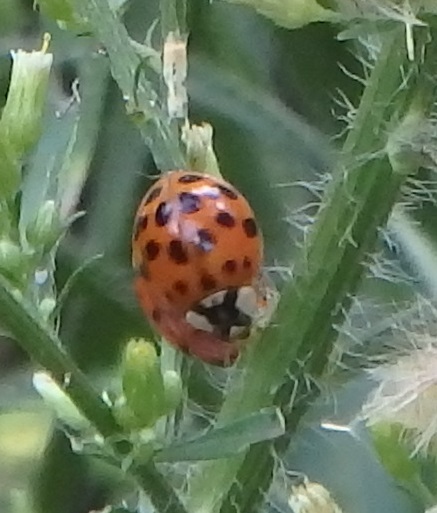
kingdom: Animalia
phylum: Arthropoda
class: Insecta
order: Coleoptera
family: Coccinellidae
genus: Harmonia
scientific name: Harmonia axyridis
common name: Harlequin ladybird
